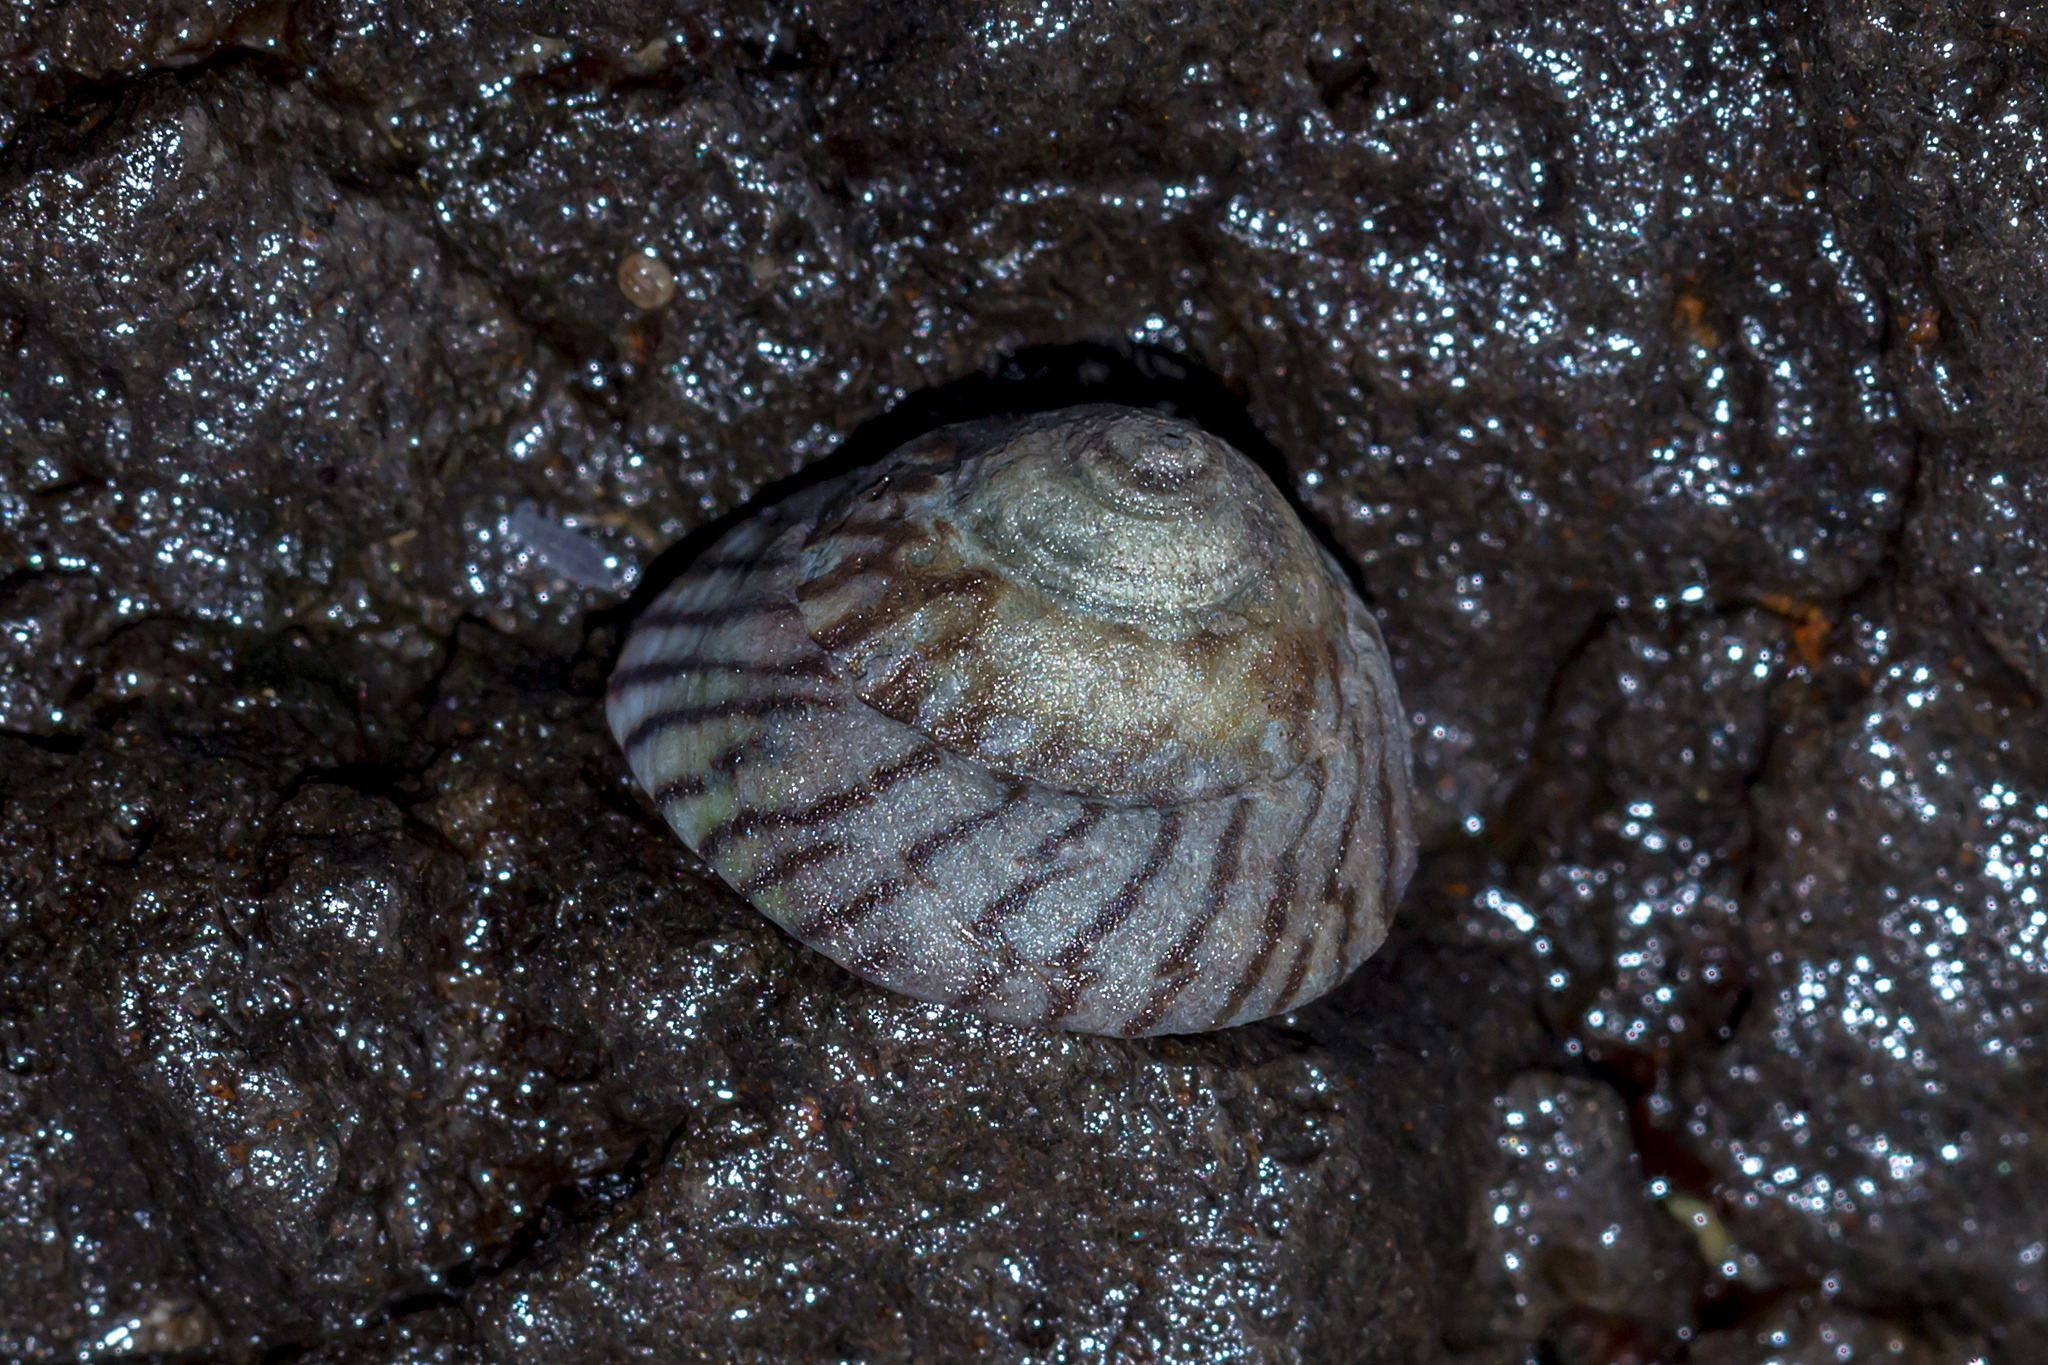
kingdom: Animalia
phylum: Mollusca
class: Gastropoda
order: Littorinimorpha
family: Littorinidae
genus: Bembicium
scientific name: Bembicium nanum
